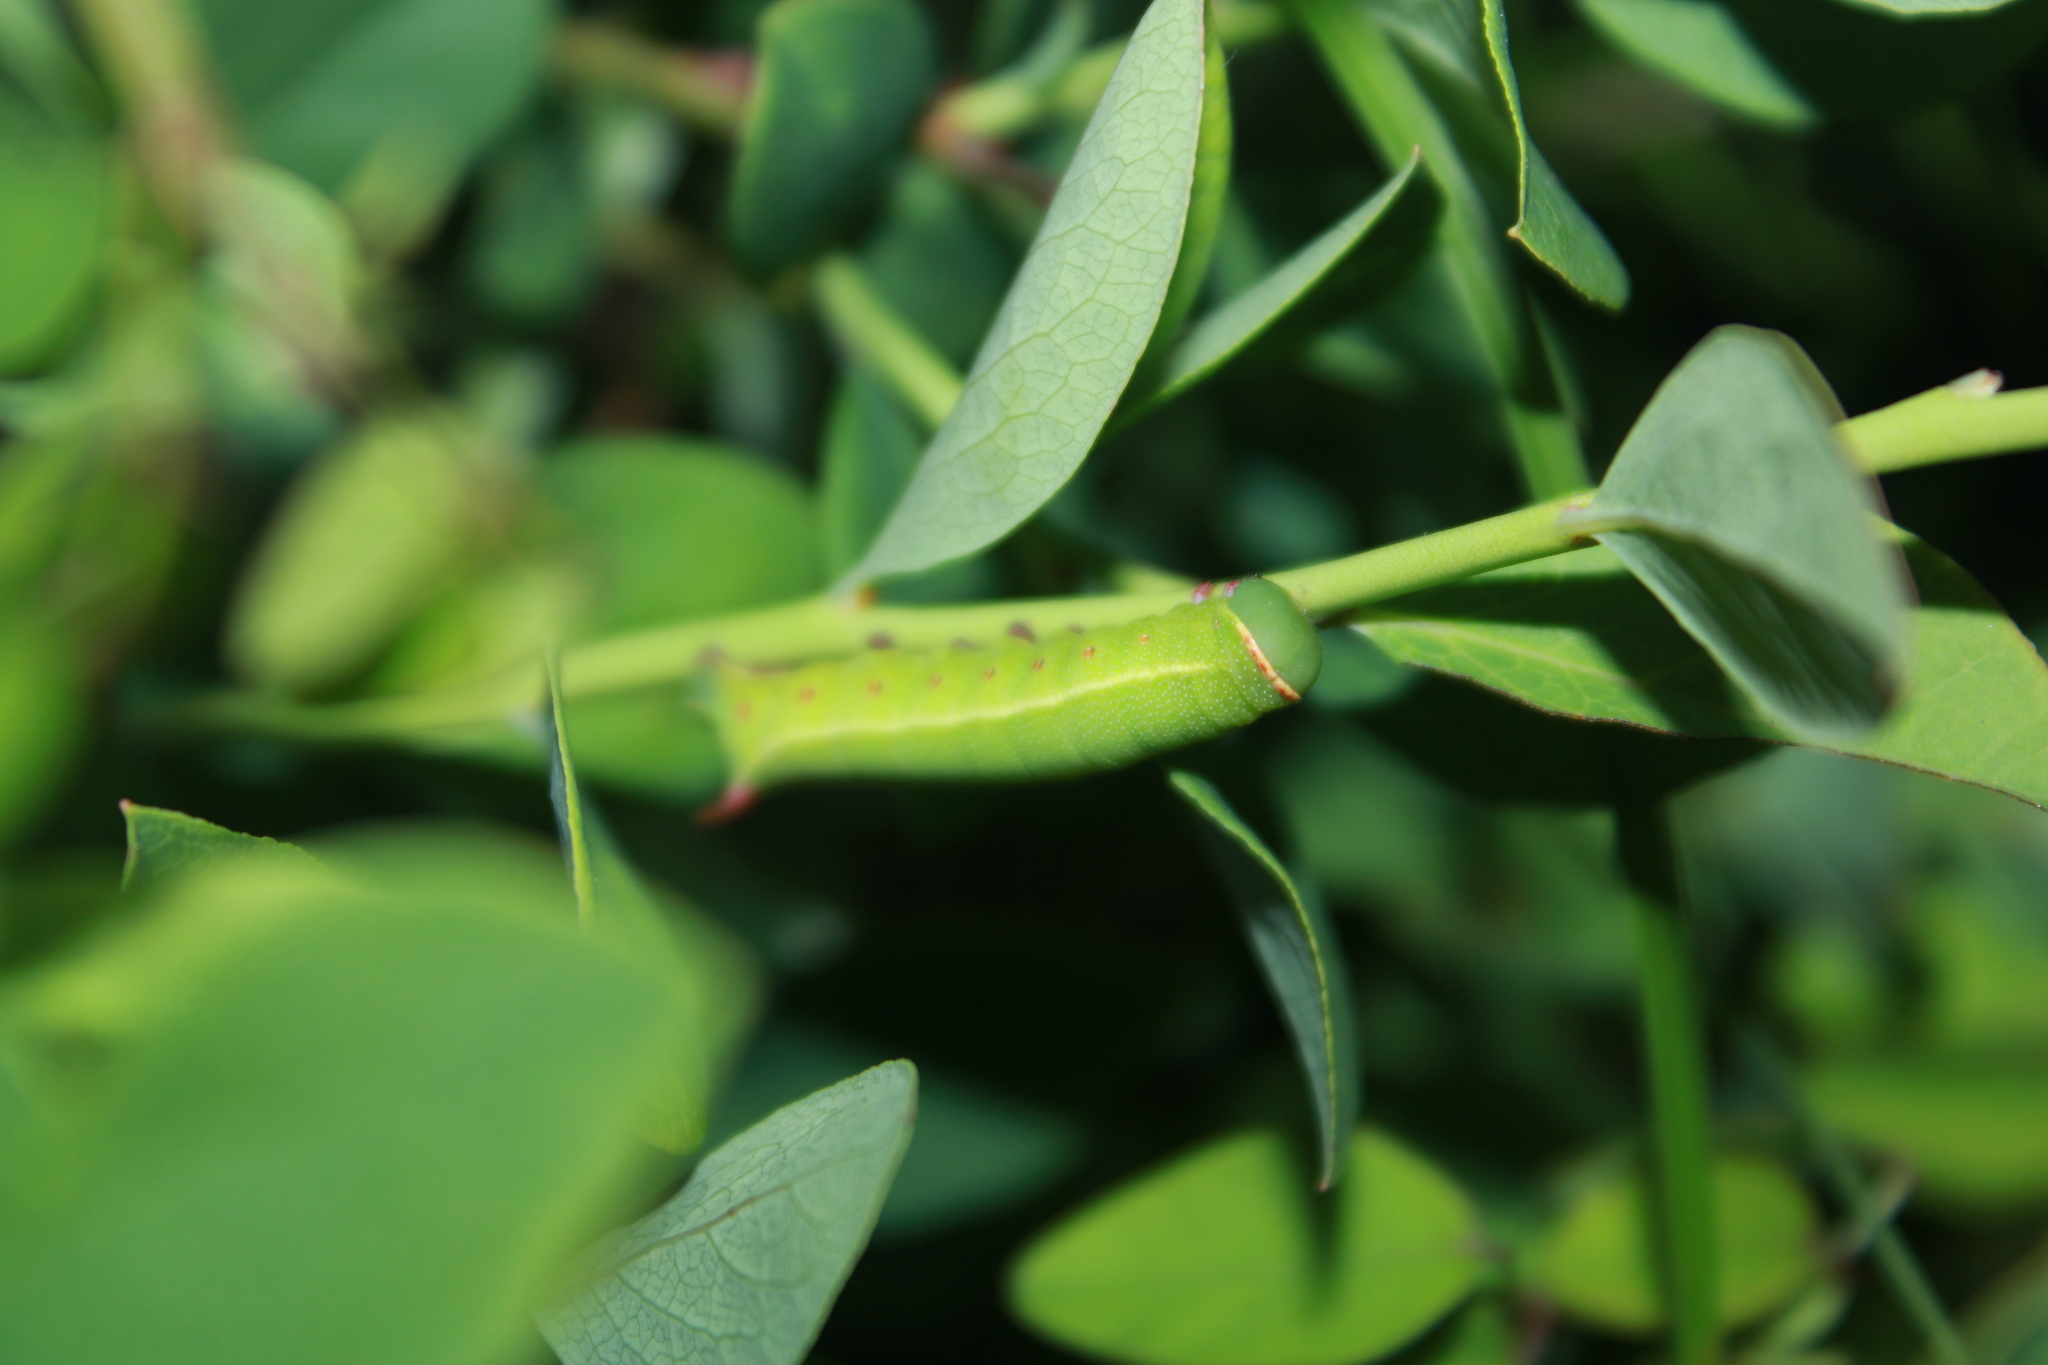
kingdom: Animalia
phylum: Arthropoda
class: Insecta
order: Lepidoptera
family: Sphingidae
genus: Hemaris
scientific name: Hemaris gracilis
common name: Graceful clearwing
